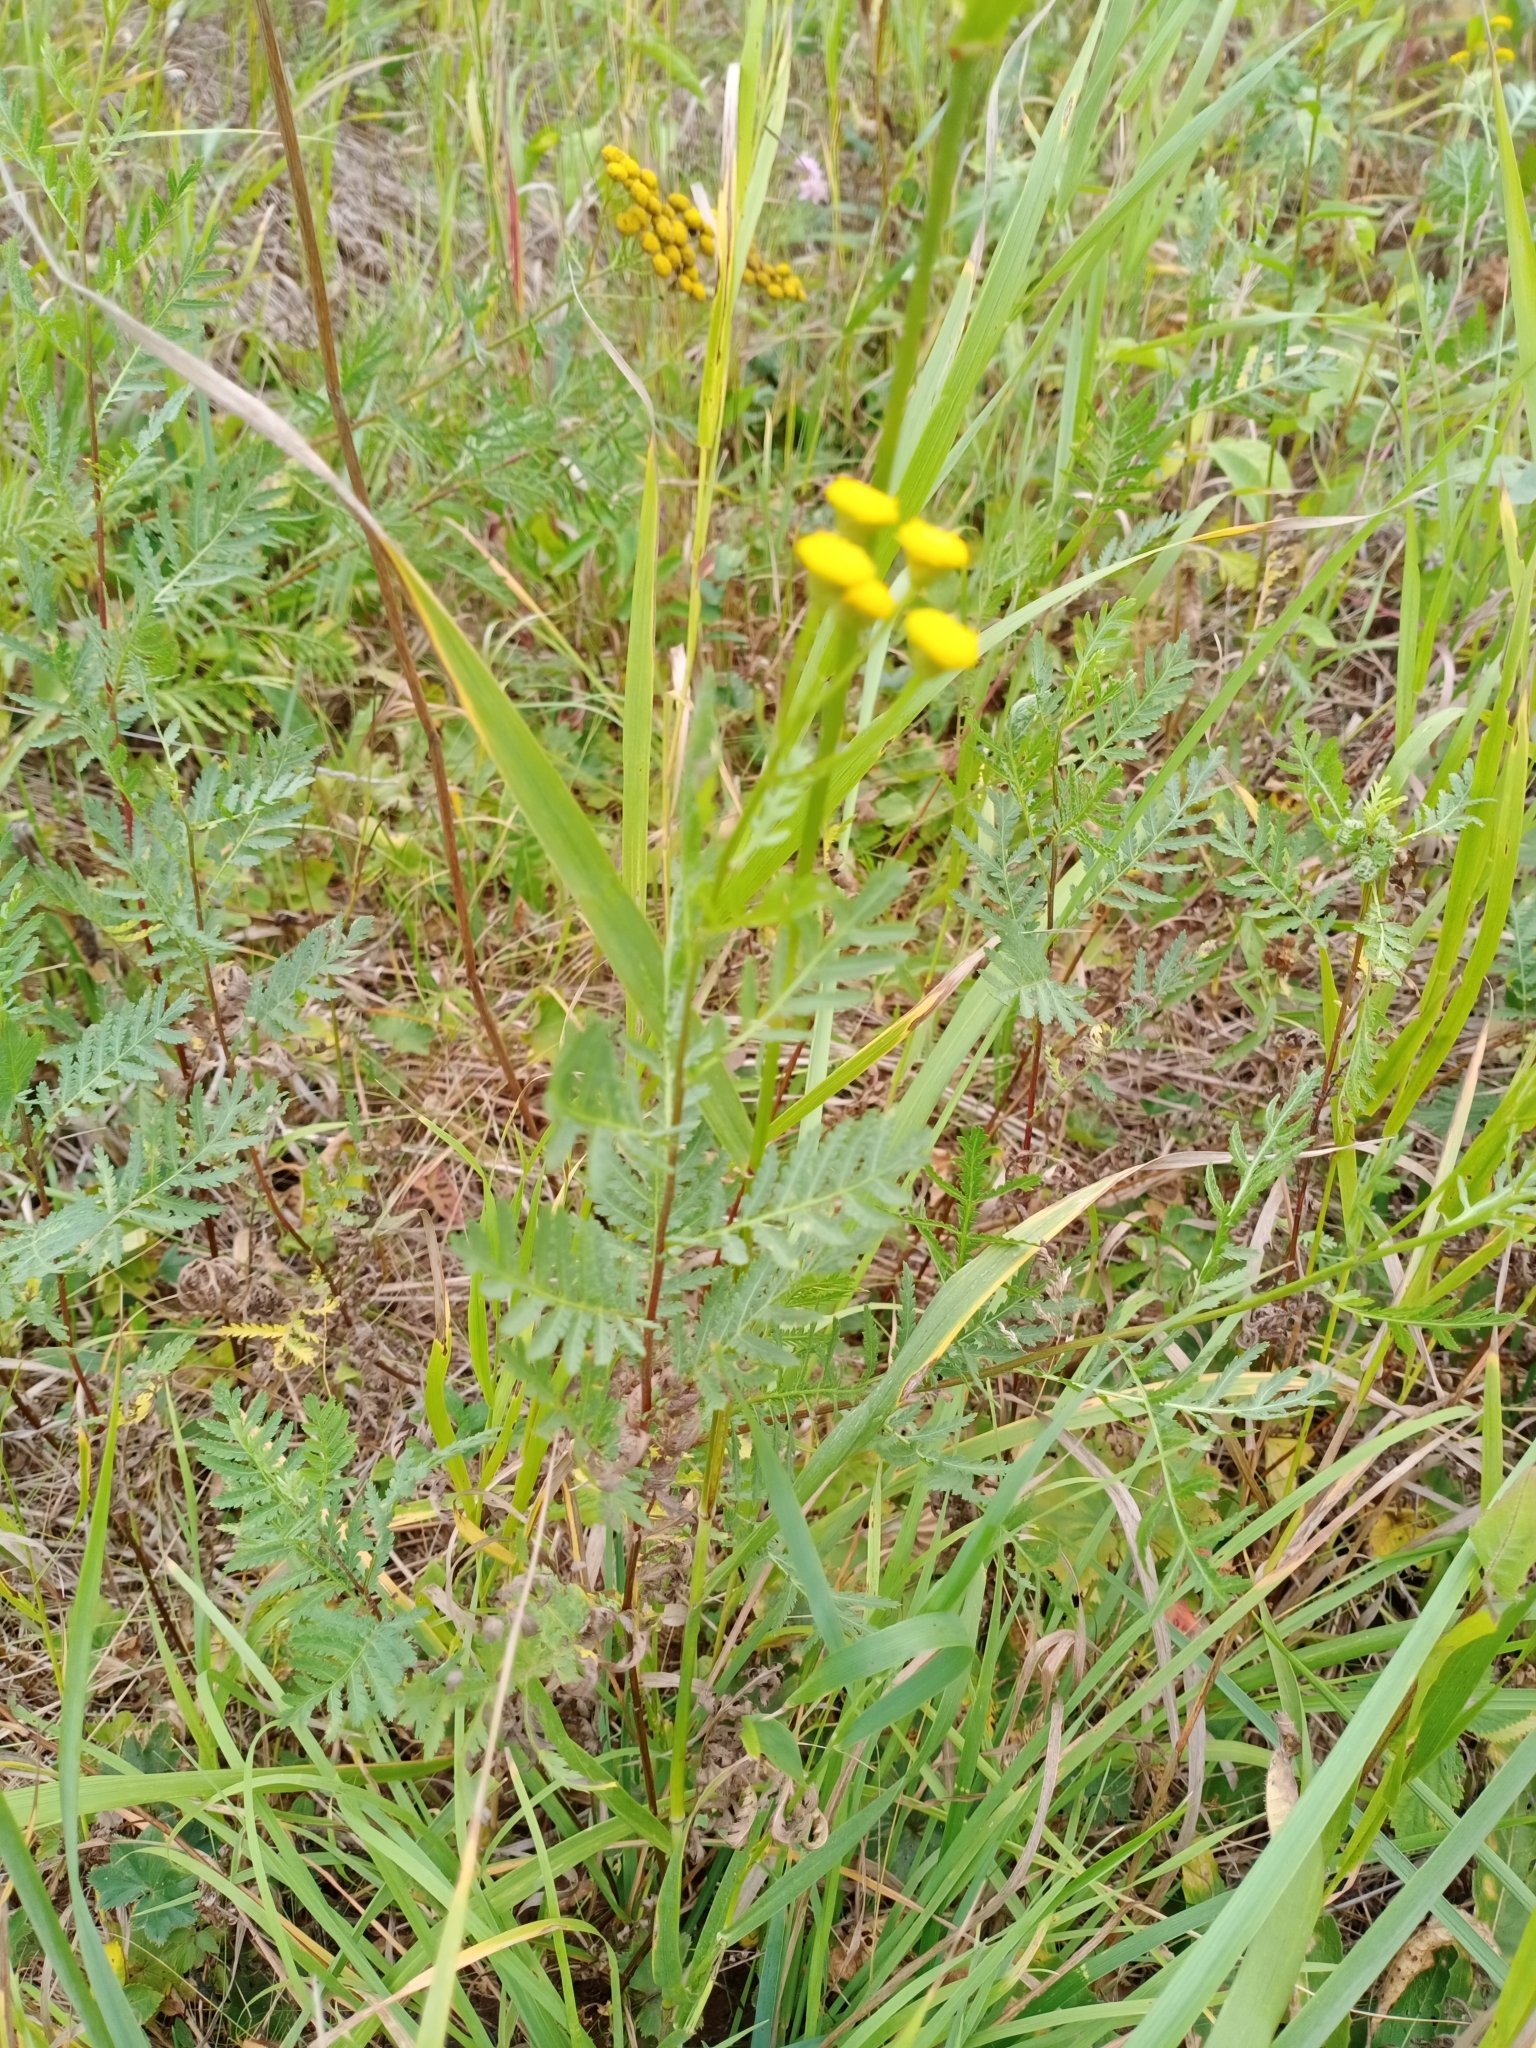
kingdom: Plantae
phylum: Tracheophyta
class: Magnoliopsida
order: Asterales
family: Asteraceae
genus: Tanacetum
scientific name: Tanacetum vulgare
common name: Common tansy
